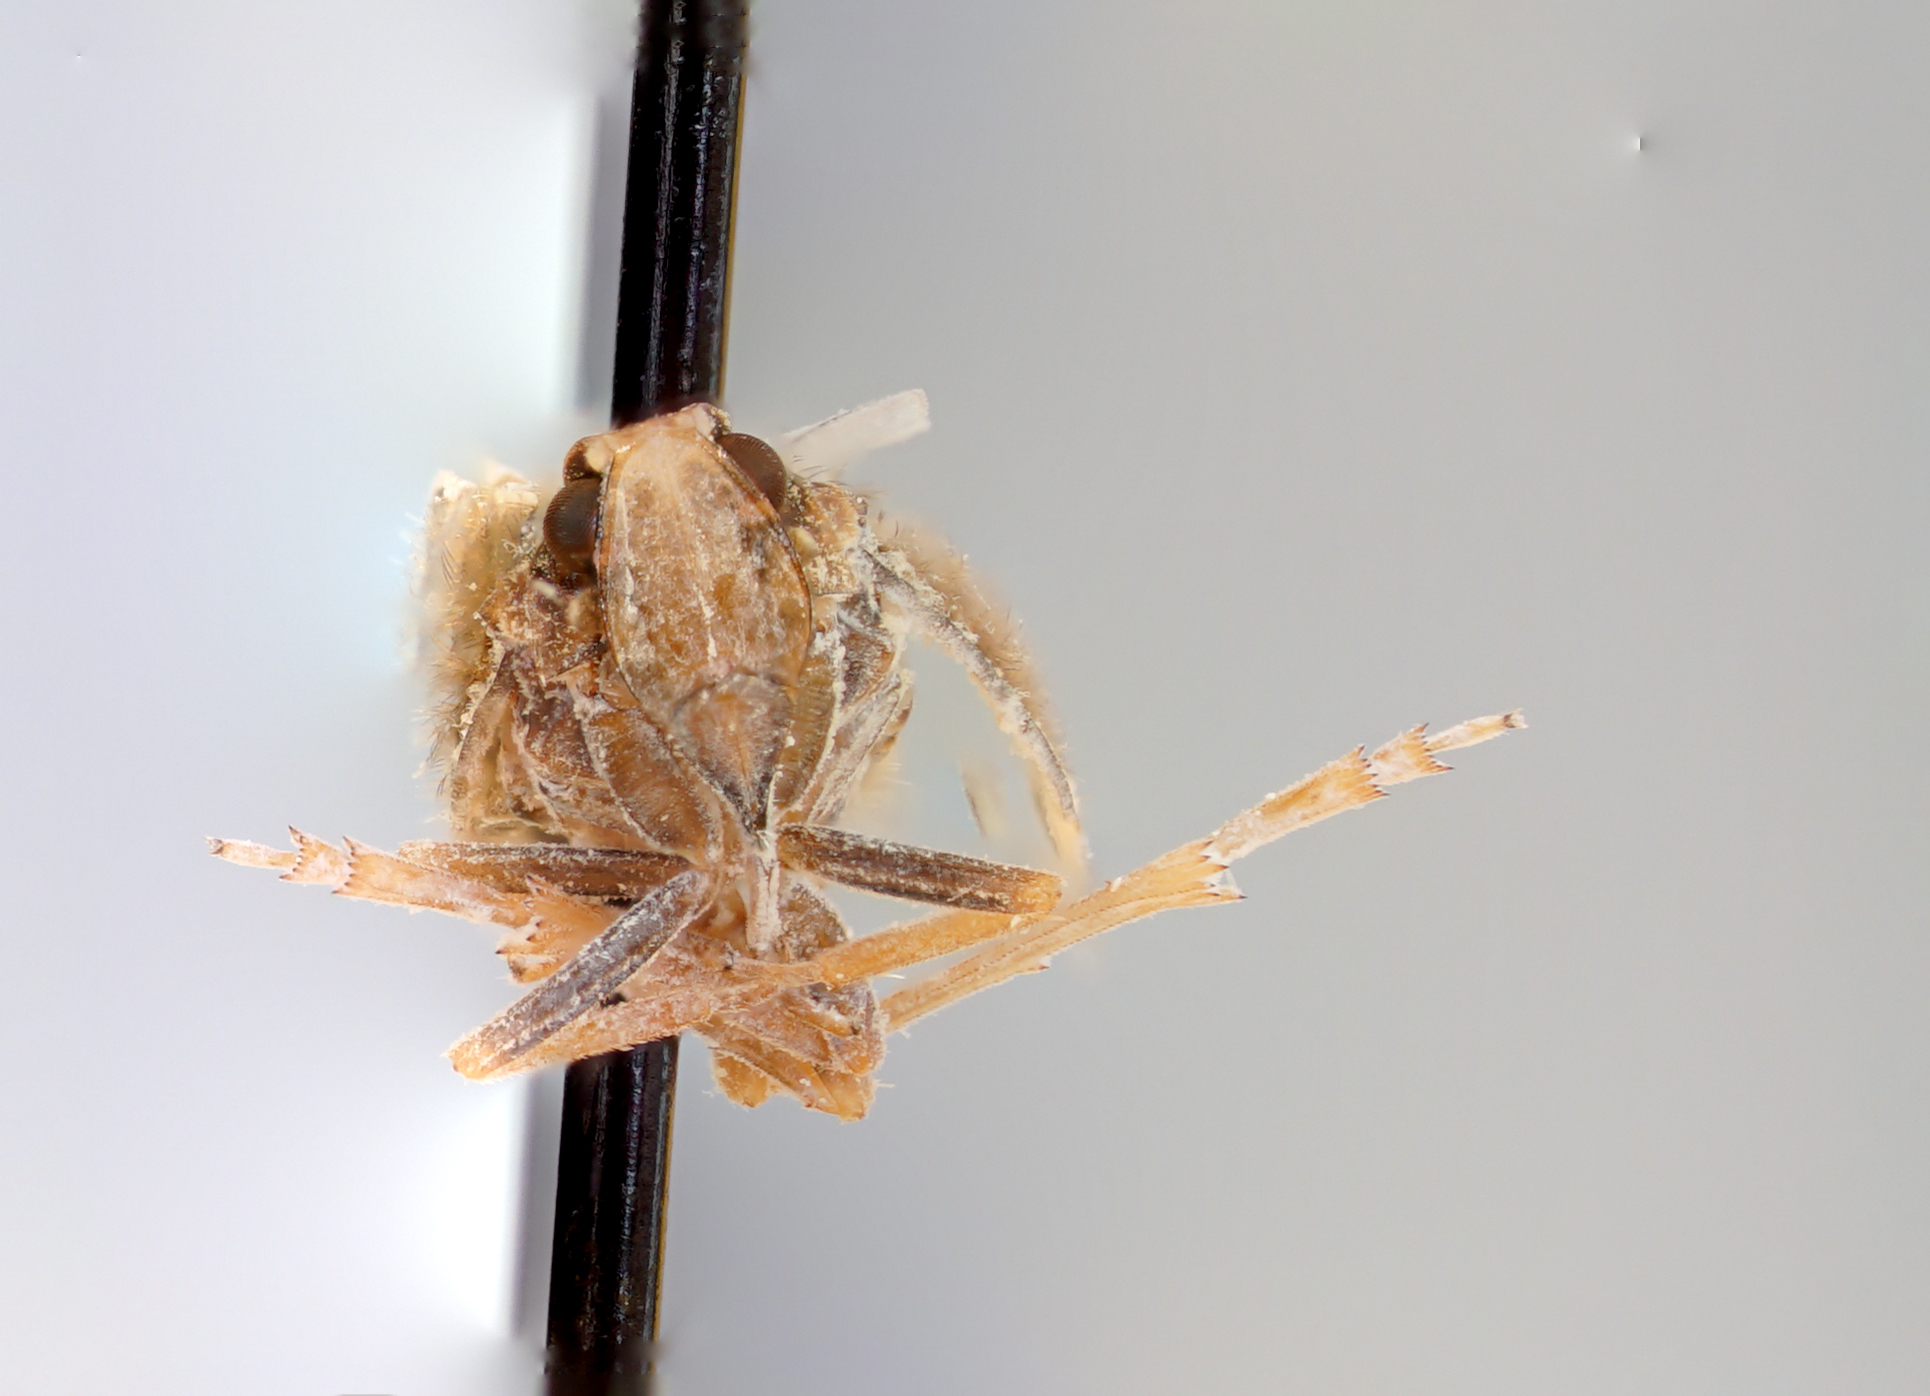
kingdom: Animalia
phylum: Arthropoda
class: Insecta
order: Hemiptera
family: Cixiidae
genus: Pintalia
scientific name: Pintalia delicata
